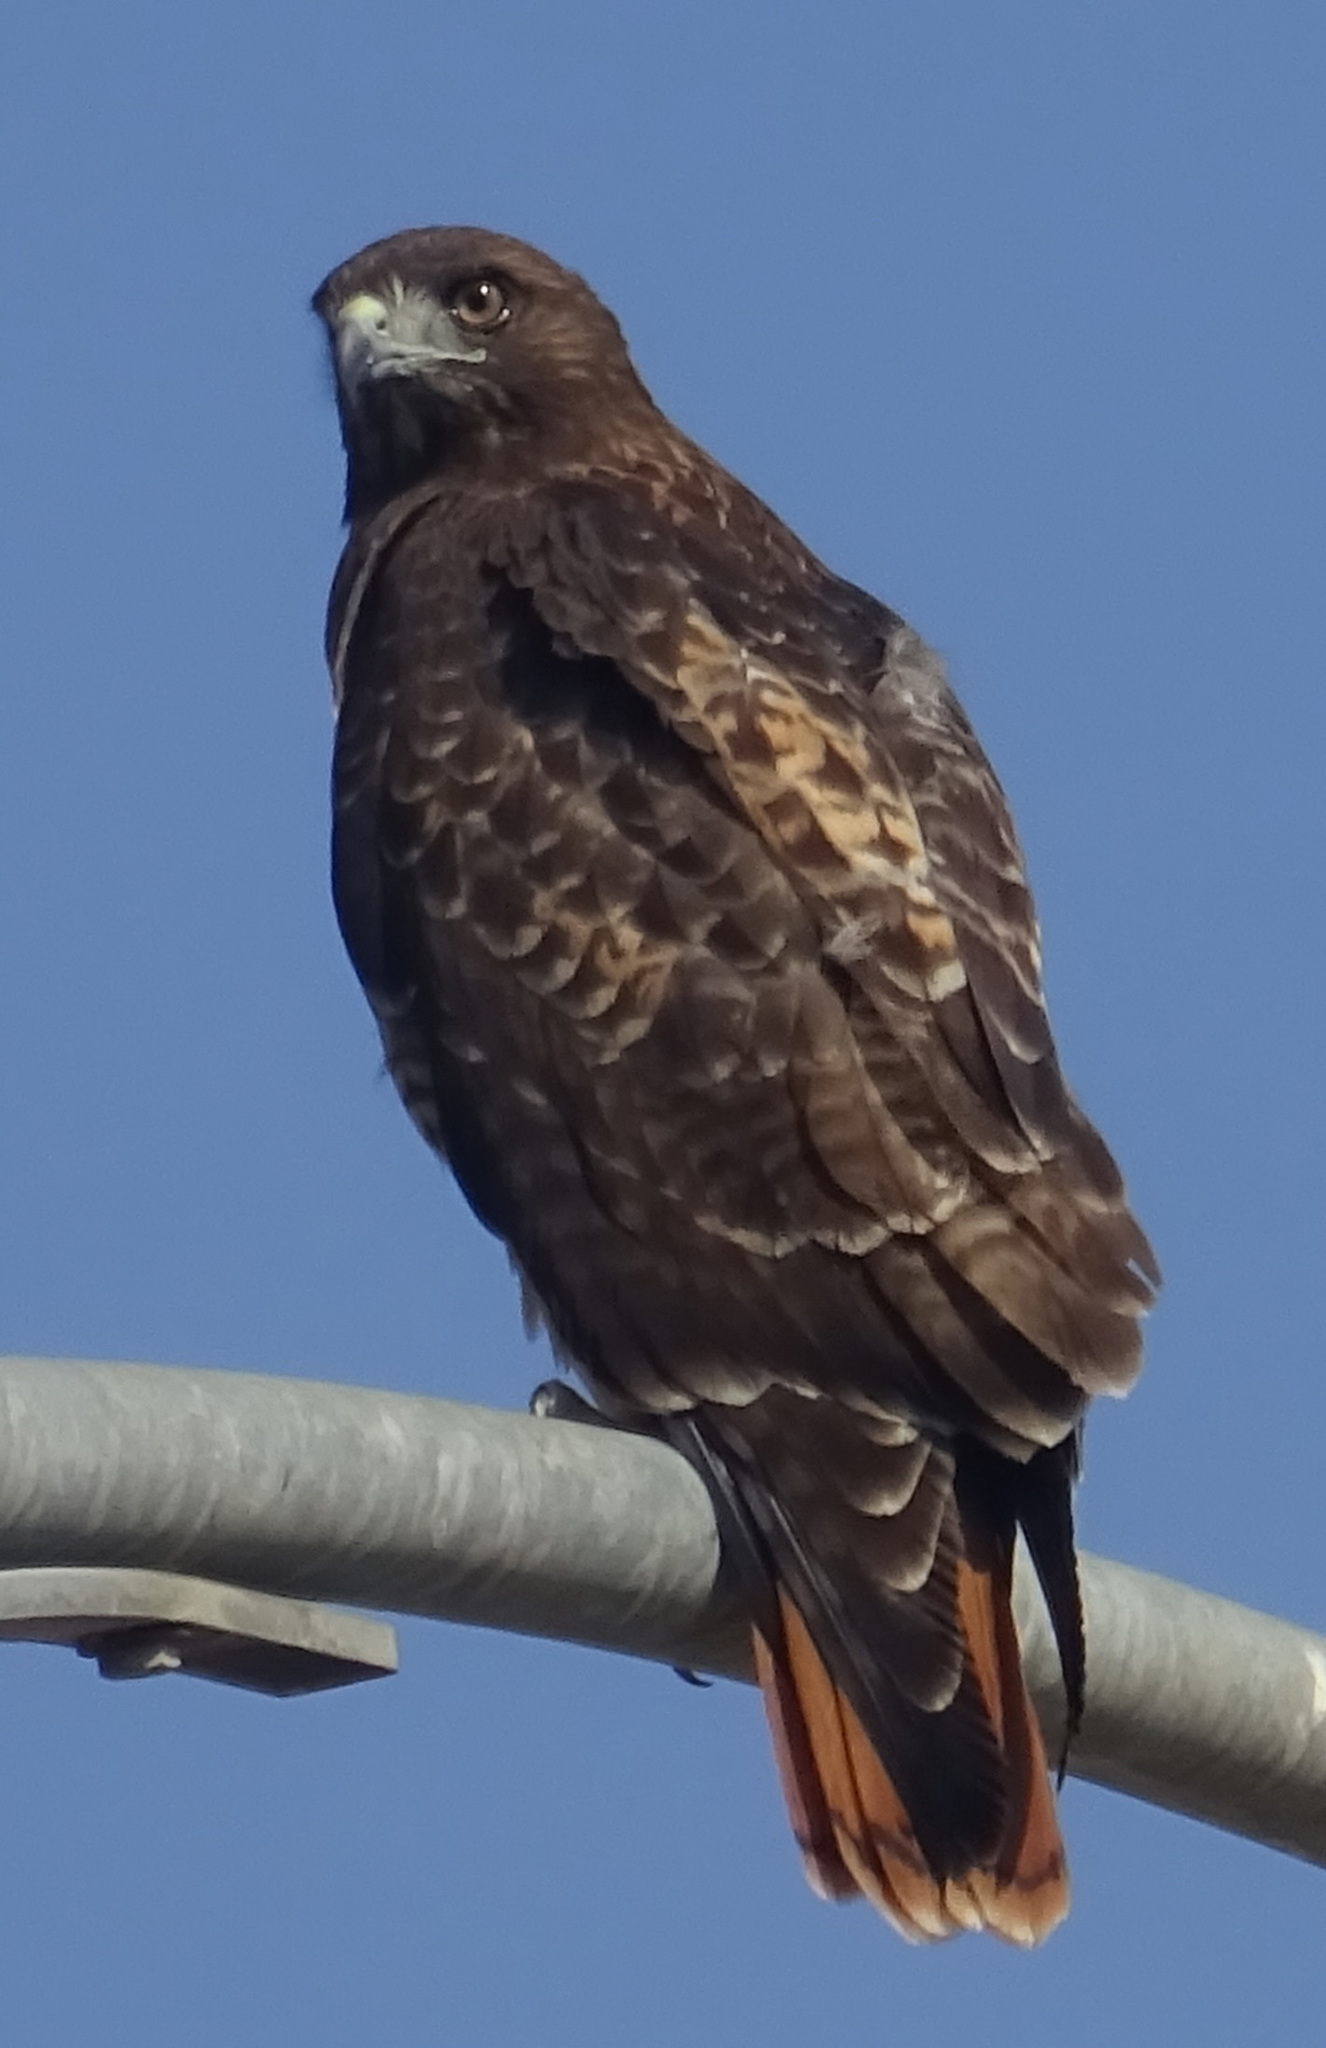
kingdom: Animalia
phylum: Chordata
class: Aves
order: Accipitriformes
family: Accipitridae
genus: Buteo
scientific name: Buteo jamaicensis
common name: Red-tailed hawk
